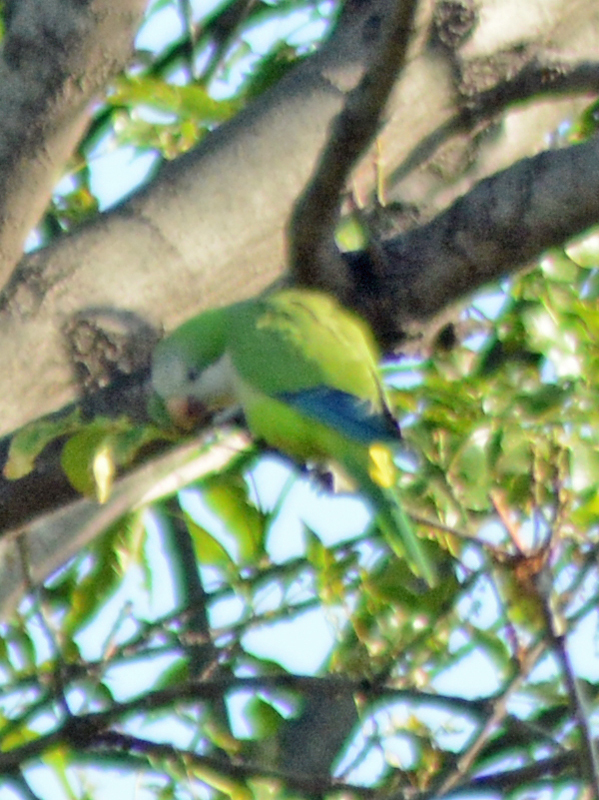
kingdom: Animalia
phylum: Chordata
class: Aves
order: Psittaciformes
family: Psittacidae
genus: Myiopsitta
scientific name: Myiopsitta monachus
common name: Monk parakeet
